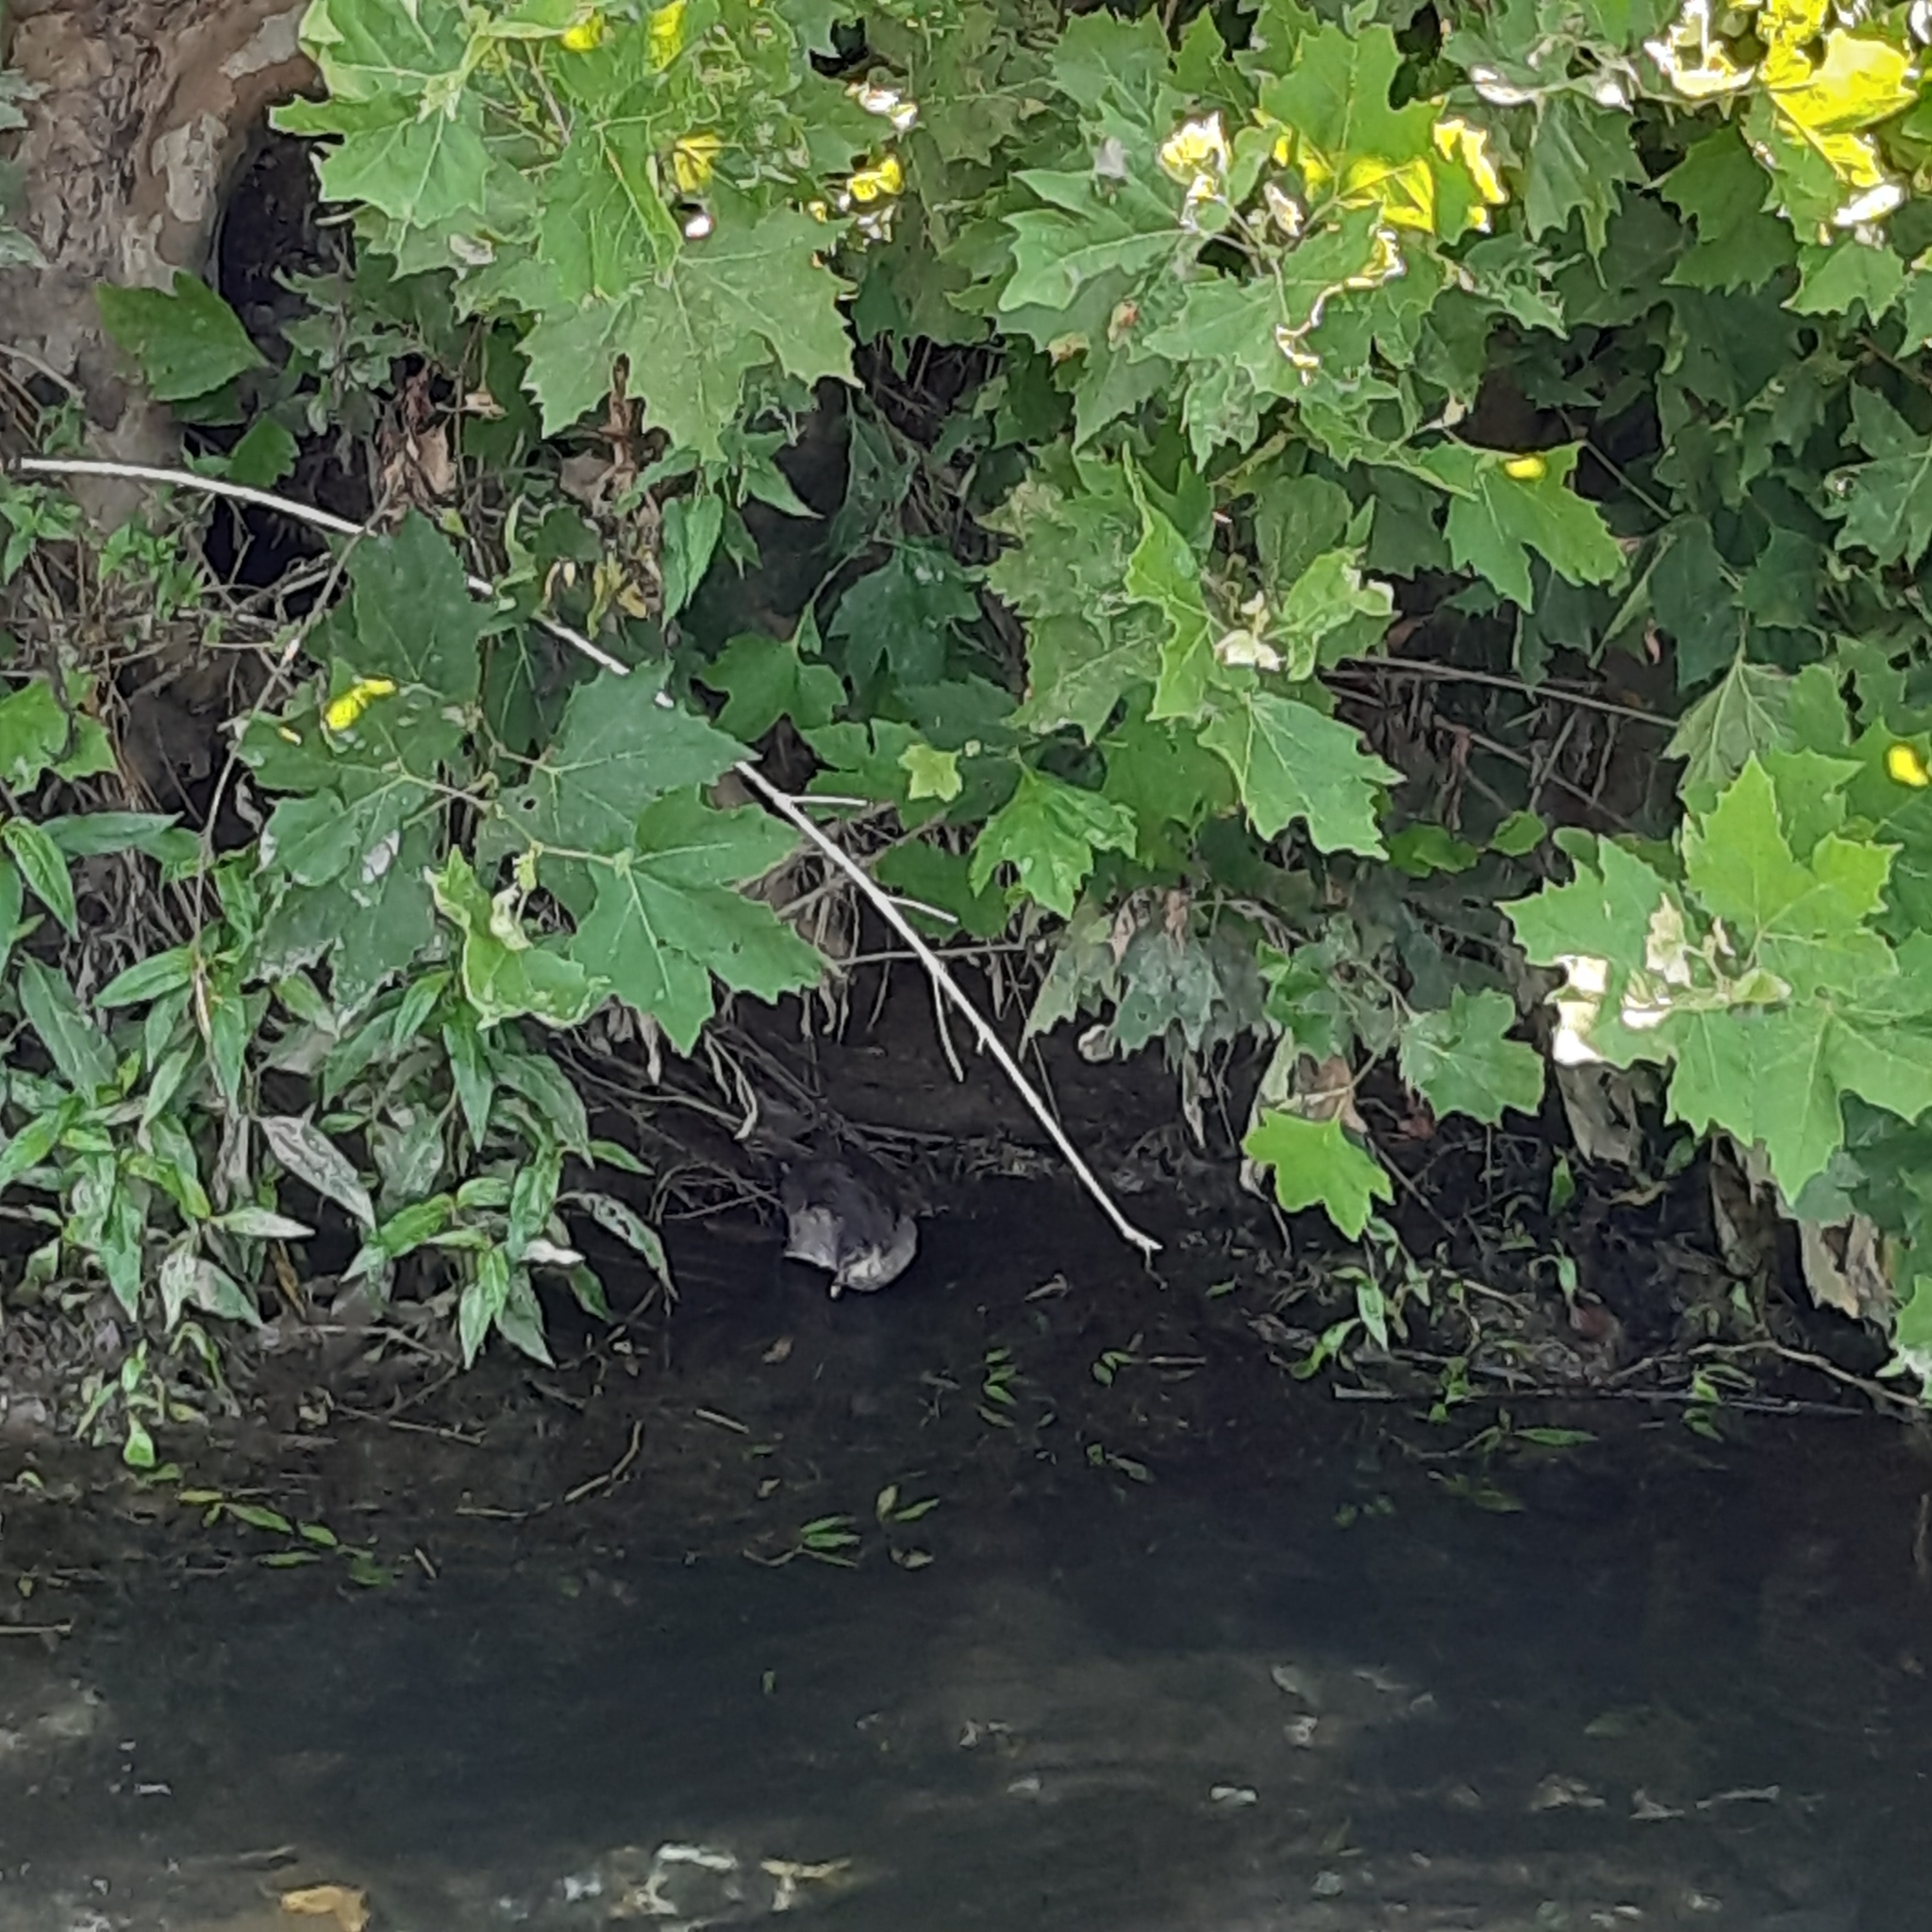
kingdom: Animalia
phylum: Chordata
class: Aves
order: Gruiformes
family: Rallidae
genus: Gallinula
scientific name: Gallinula chloropus
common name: Common moorhen
